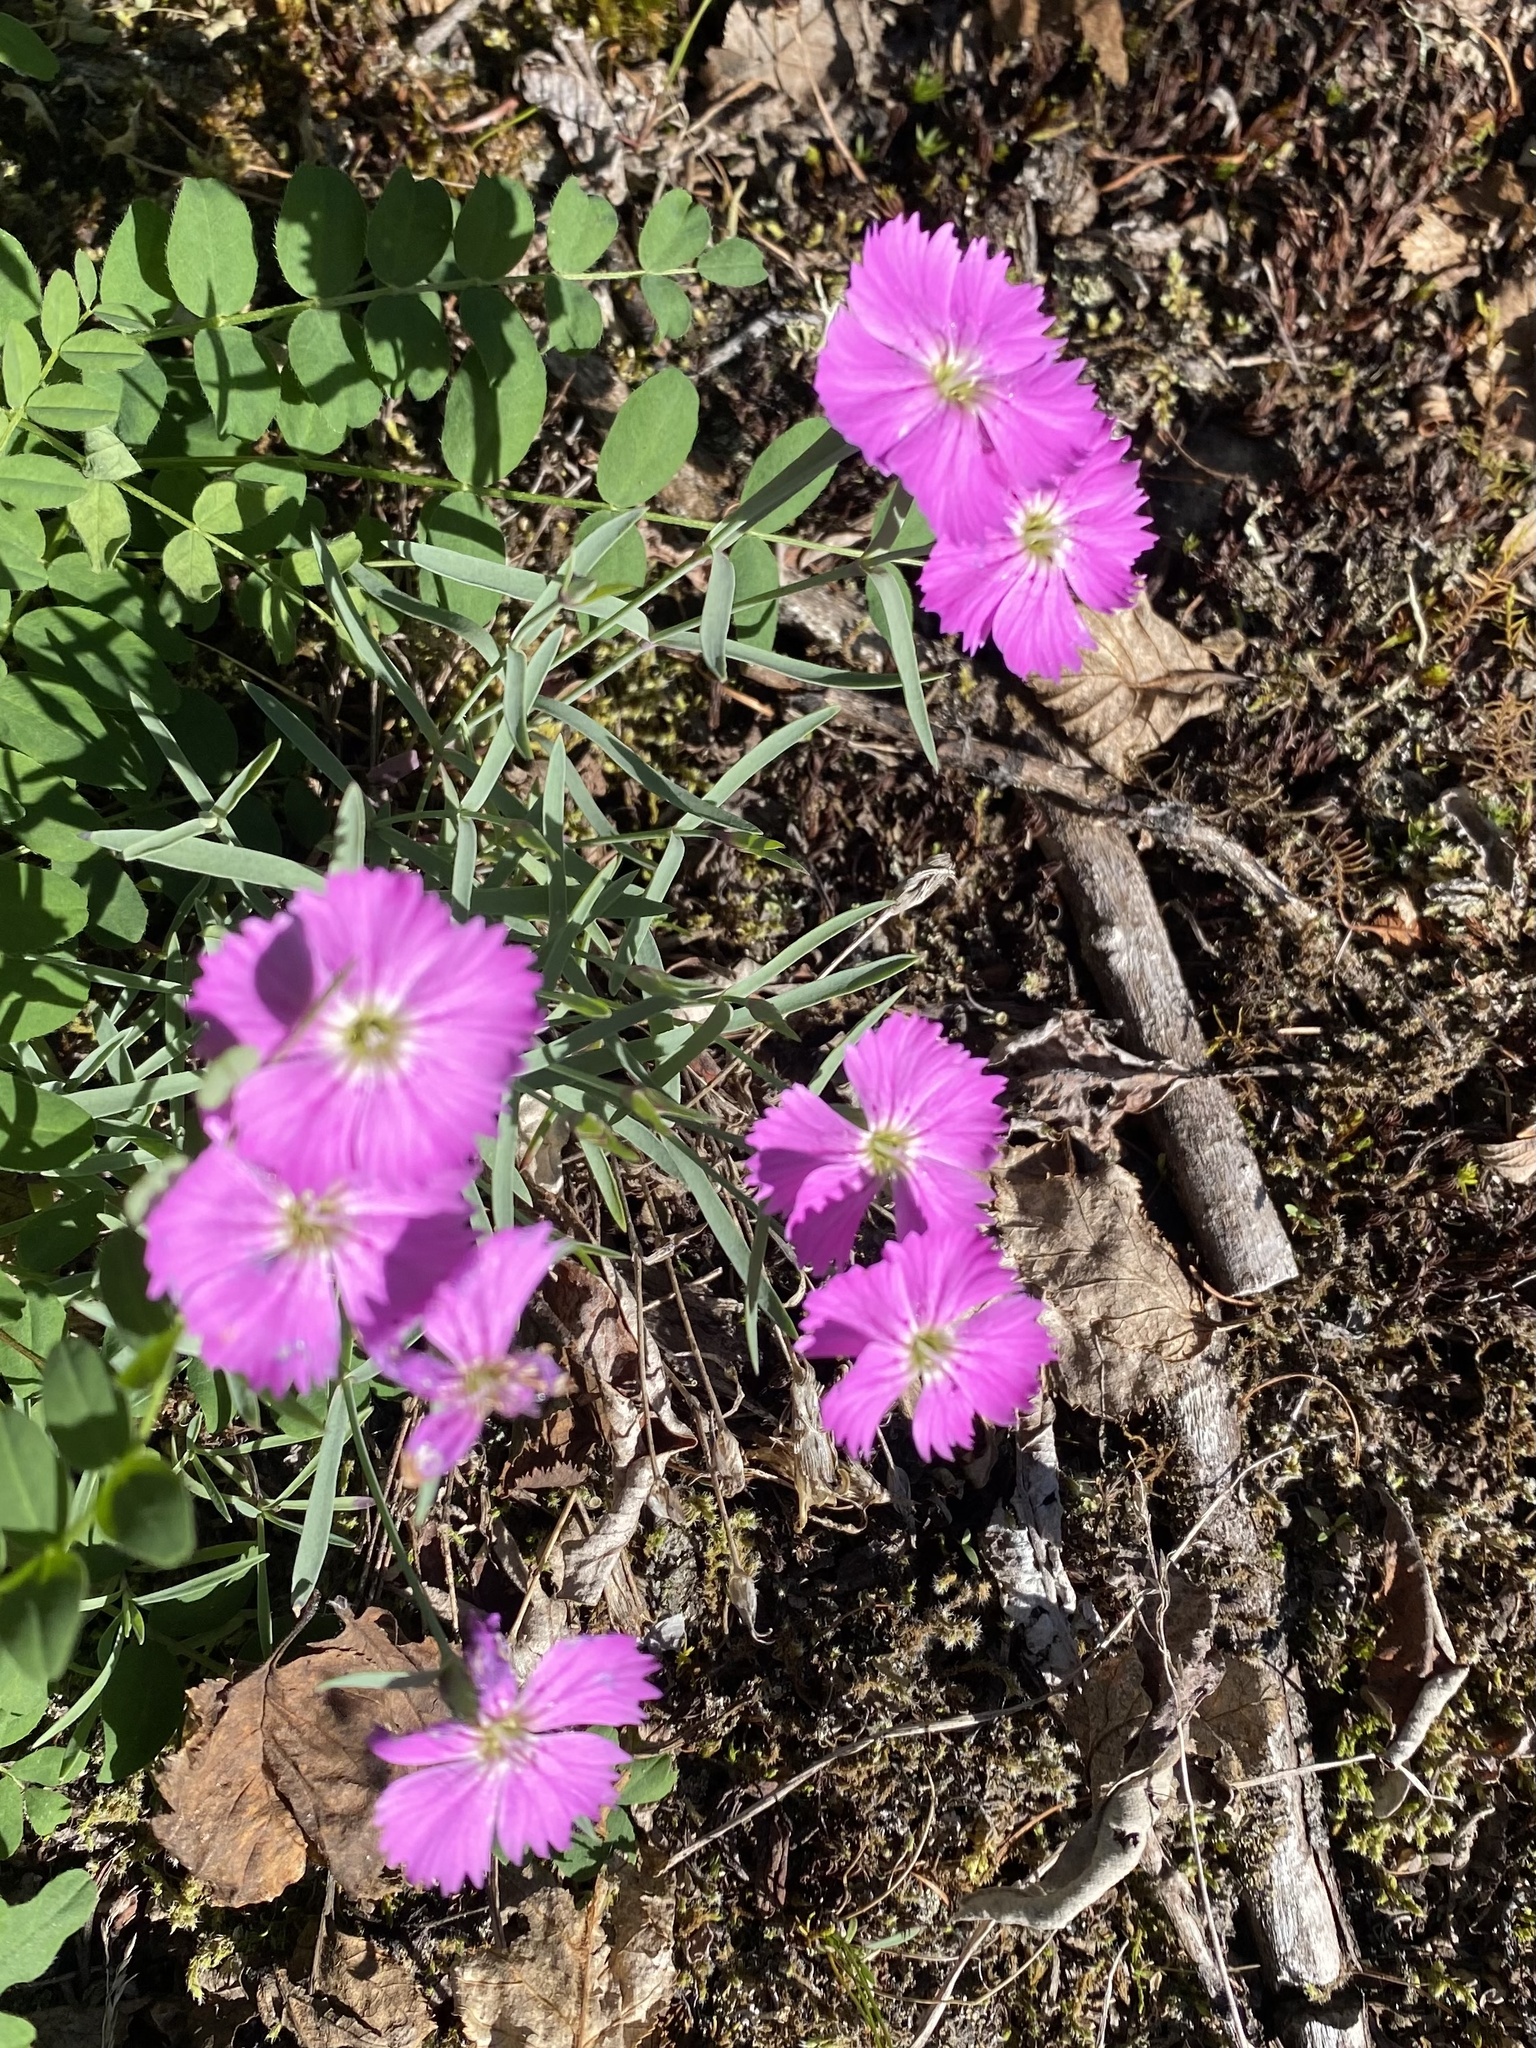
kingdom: Plantae
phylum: Tracheophyta
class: Magnoliopsida
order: Caryophyllales
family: Caryophyllaceae
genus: Dianthus
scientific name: Dianthus repens
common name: Northern pink
